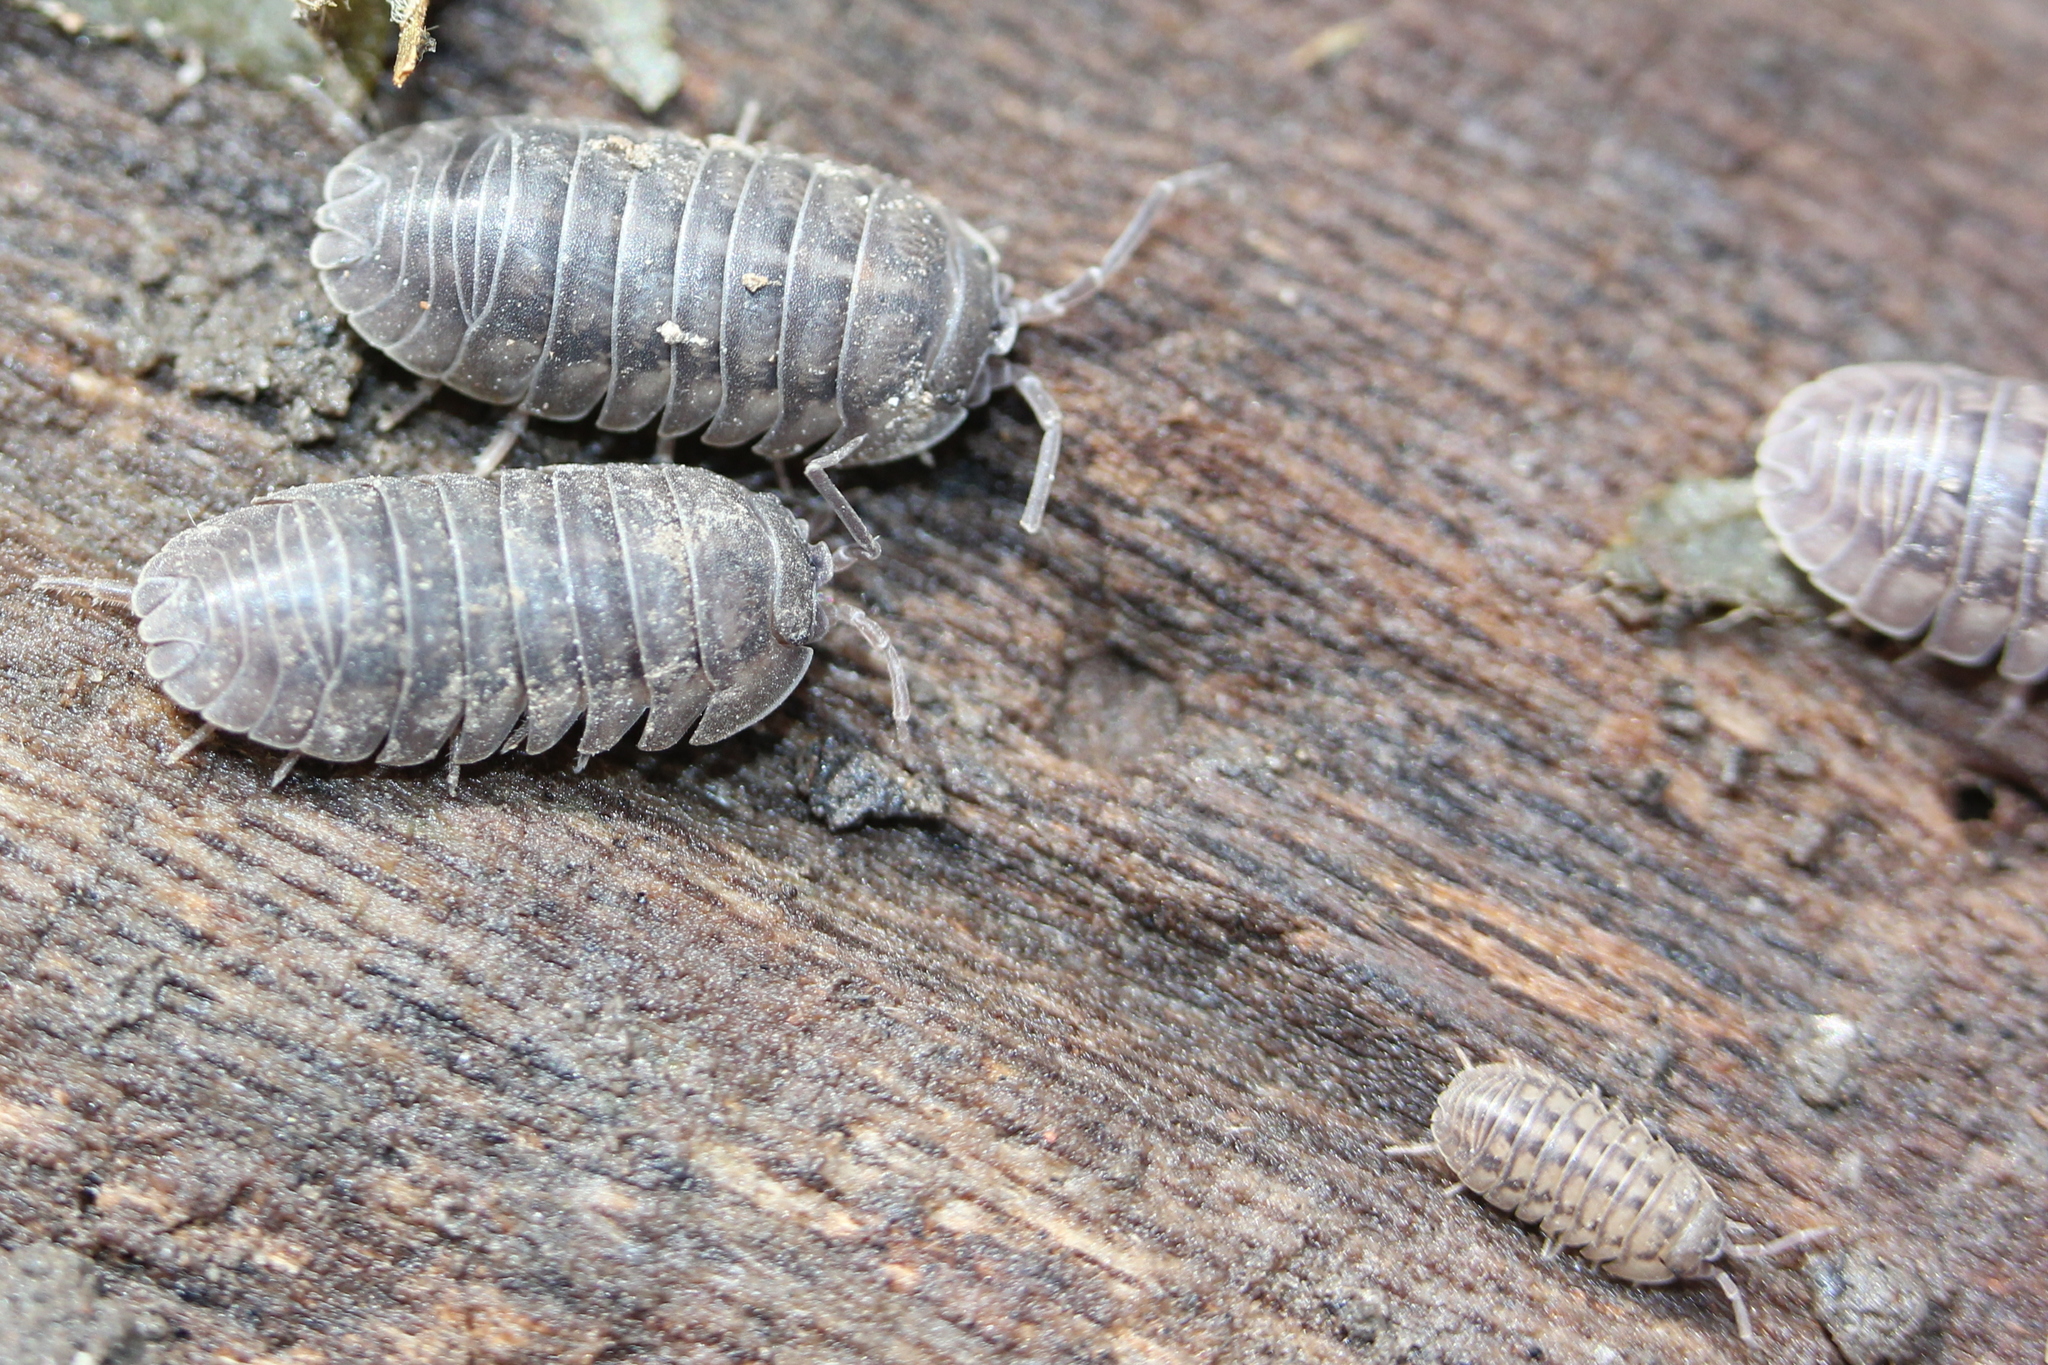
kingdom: Animalia
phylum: Arthropoda
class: Malacostraca
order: Isopoda
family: Armadillidiidae
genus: Armadillidium
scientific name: Armadillidium nasatum
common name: Isopod
